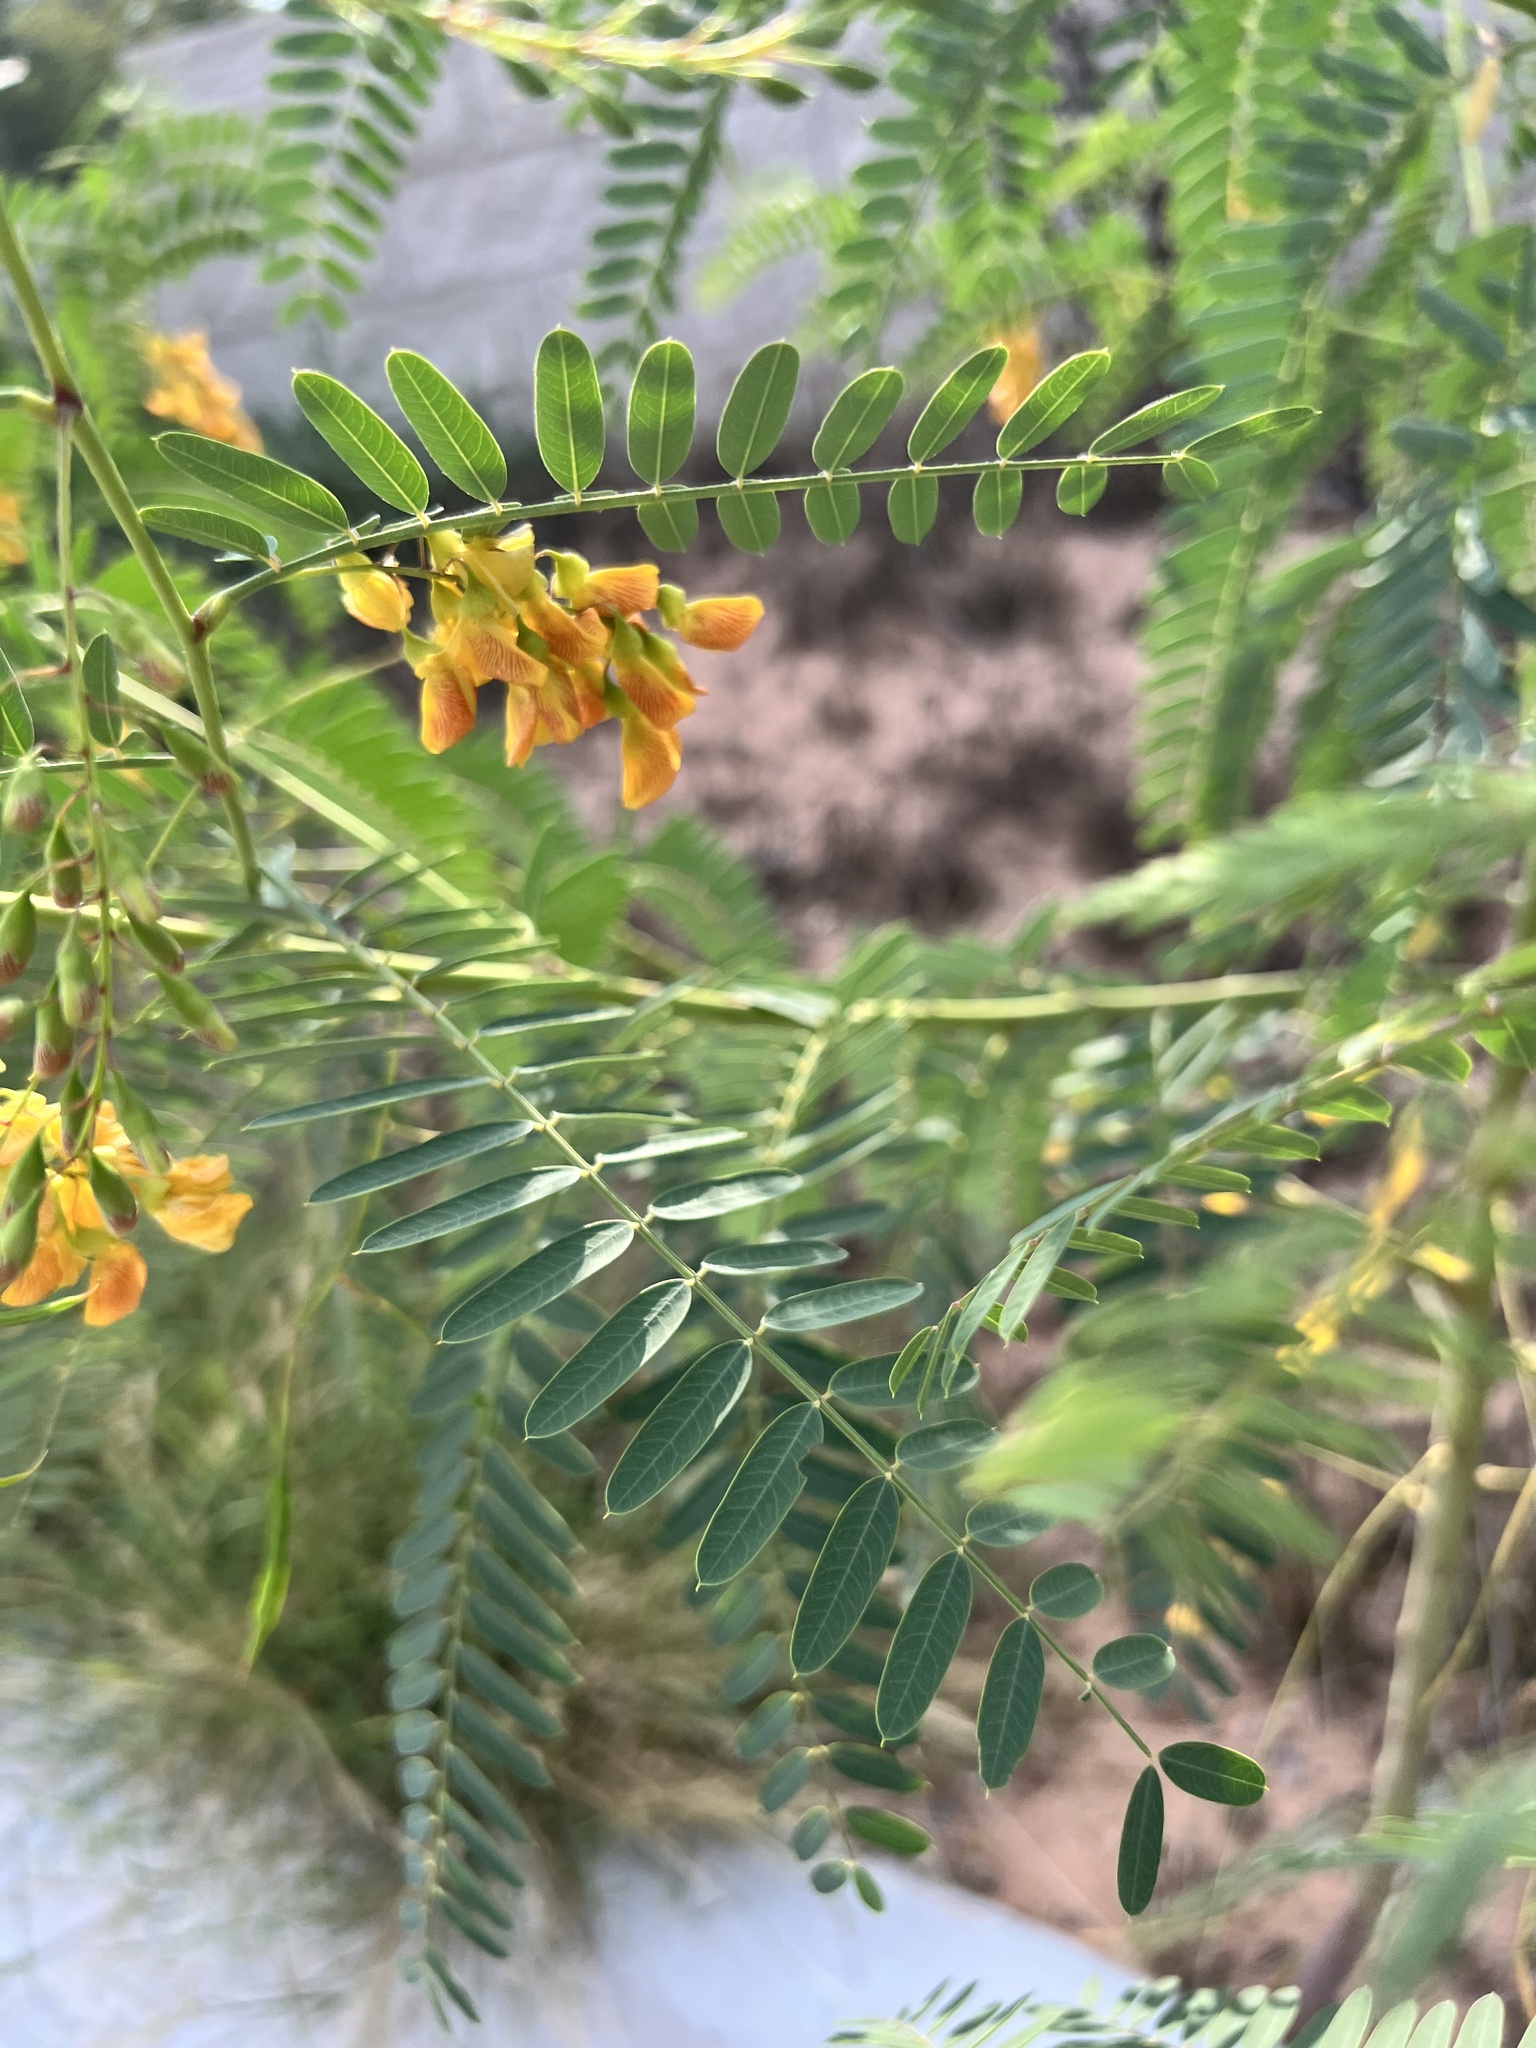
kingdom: Plantae
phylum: Tracheophyta
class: Magnoliopsida
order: Fabales
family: Fabaceae
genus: Sesbania
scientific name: Sesbania drummondii
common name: Poison-bean
